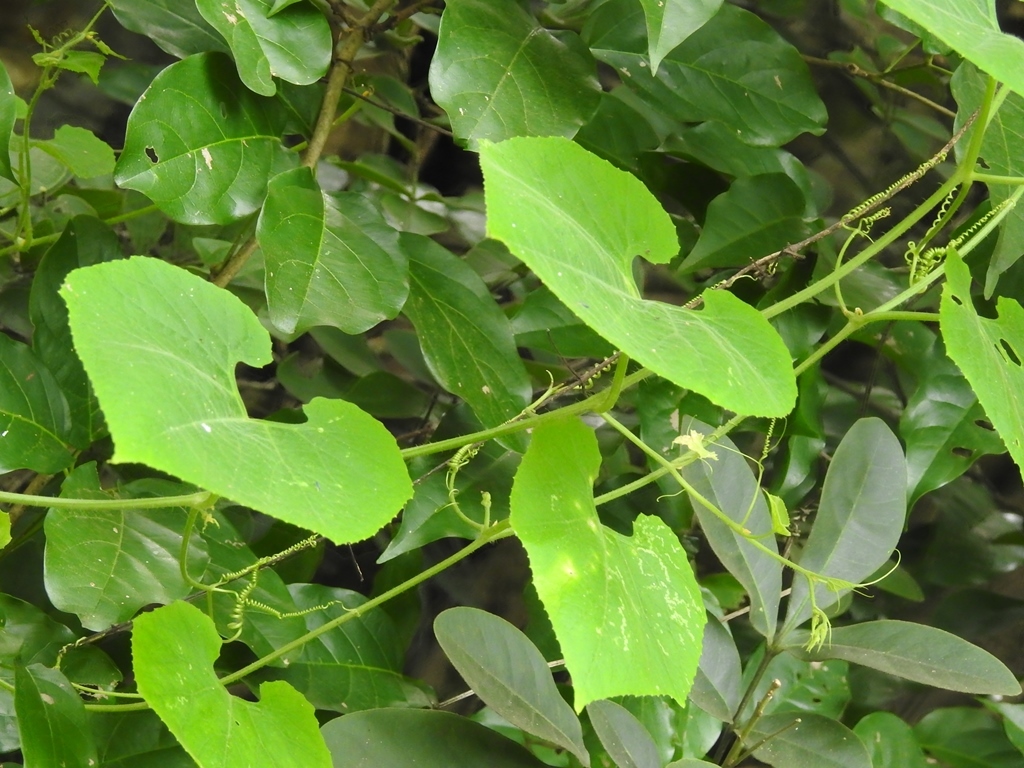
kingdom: Plantae
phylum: Tracheophyta
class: Magnoliopsida
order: Cucurbitales
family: Cucurbitaceae
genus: Cyclanthera
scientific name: Cyclanthera steyermarkii
